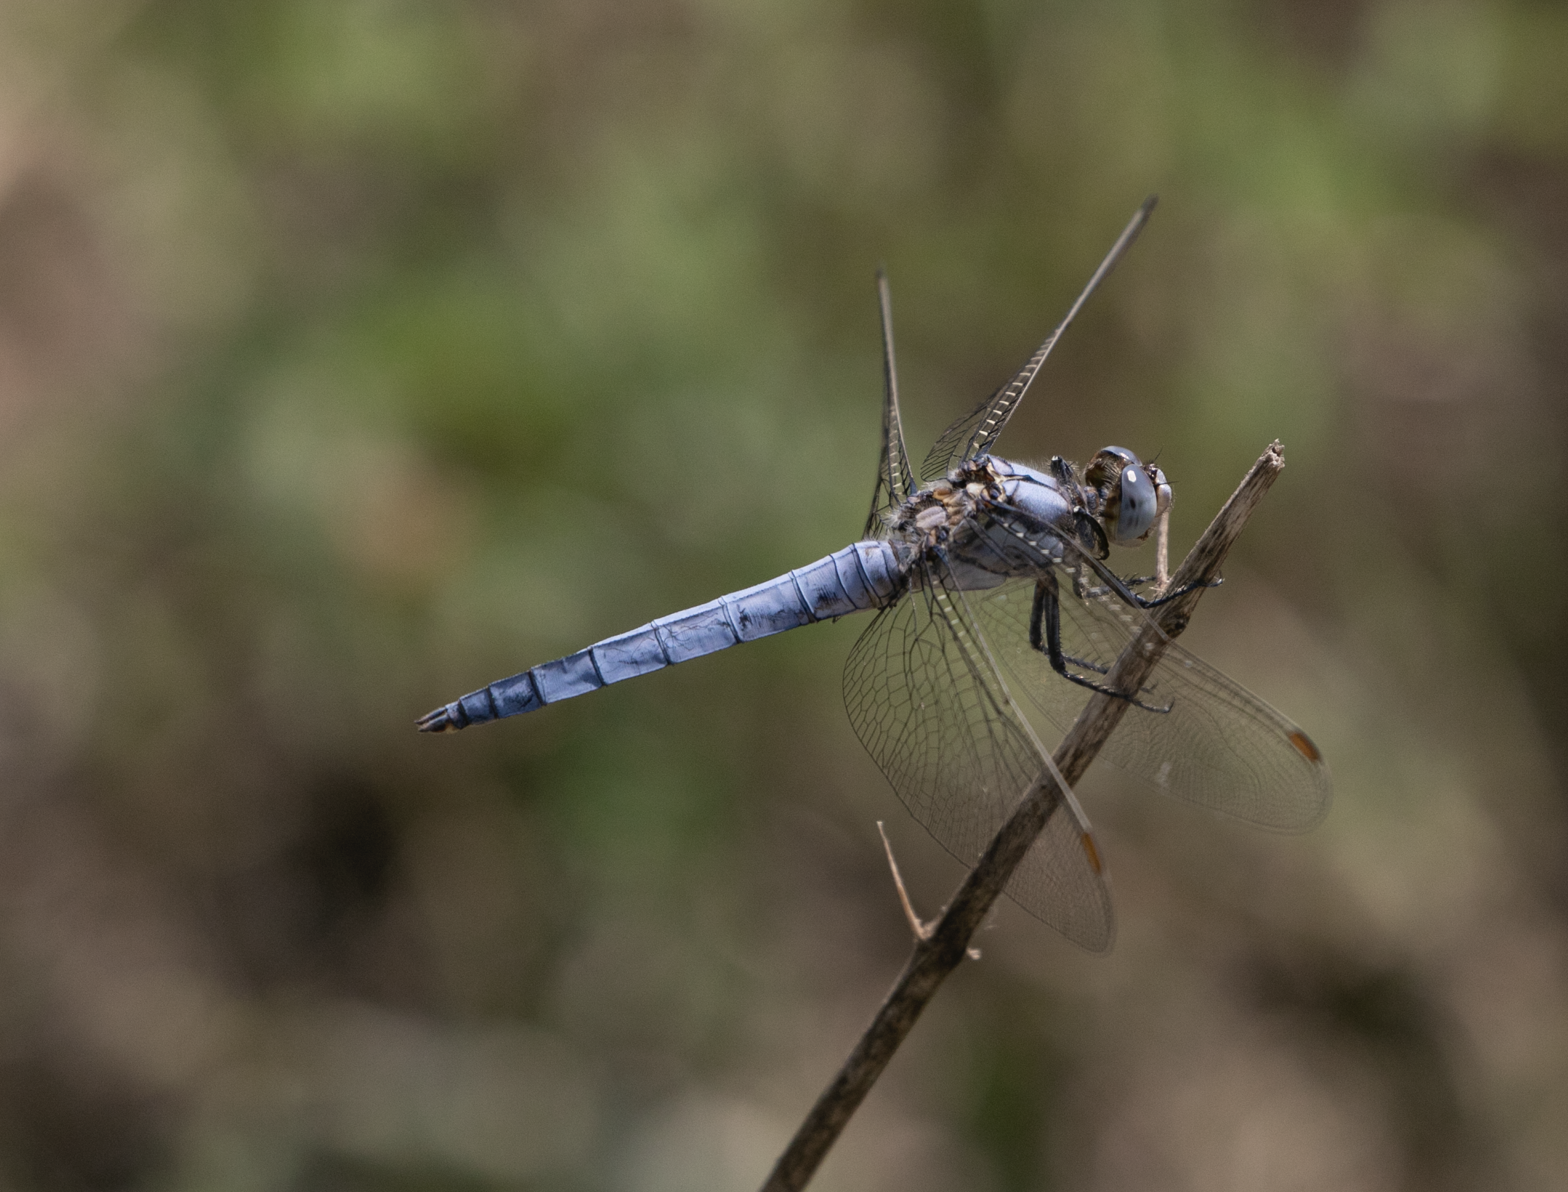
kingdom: Animalia
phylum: Arthropoda
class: Insecta
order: Odonata
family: Libellulidae
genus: Orthetrum
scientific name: Orthetrum brunneum
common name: Southern skimmer
